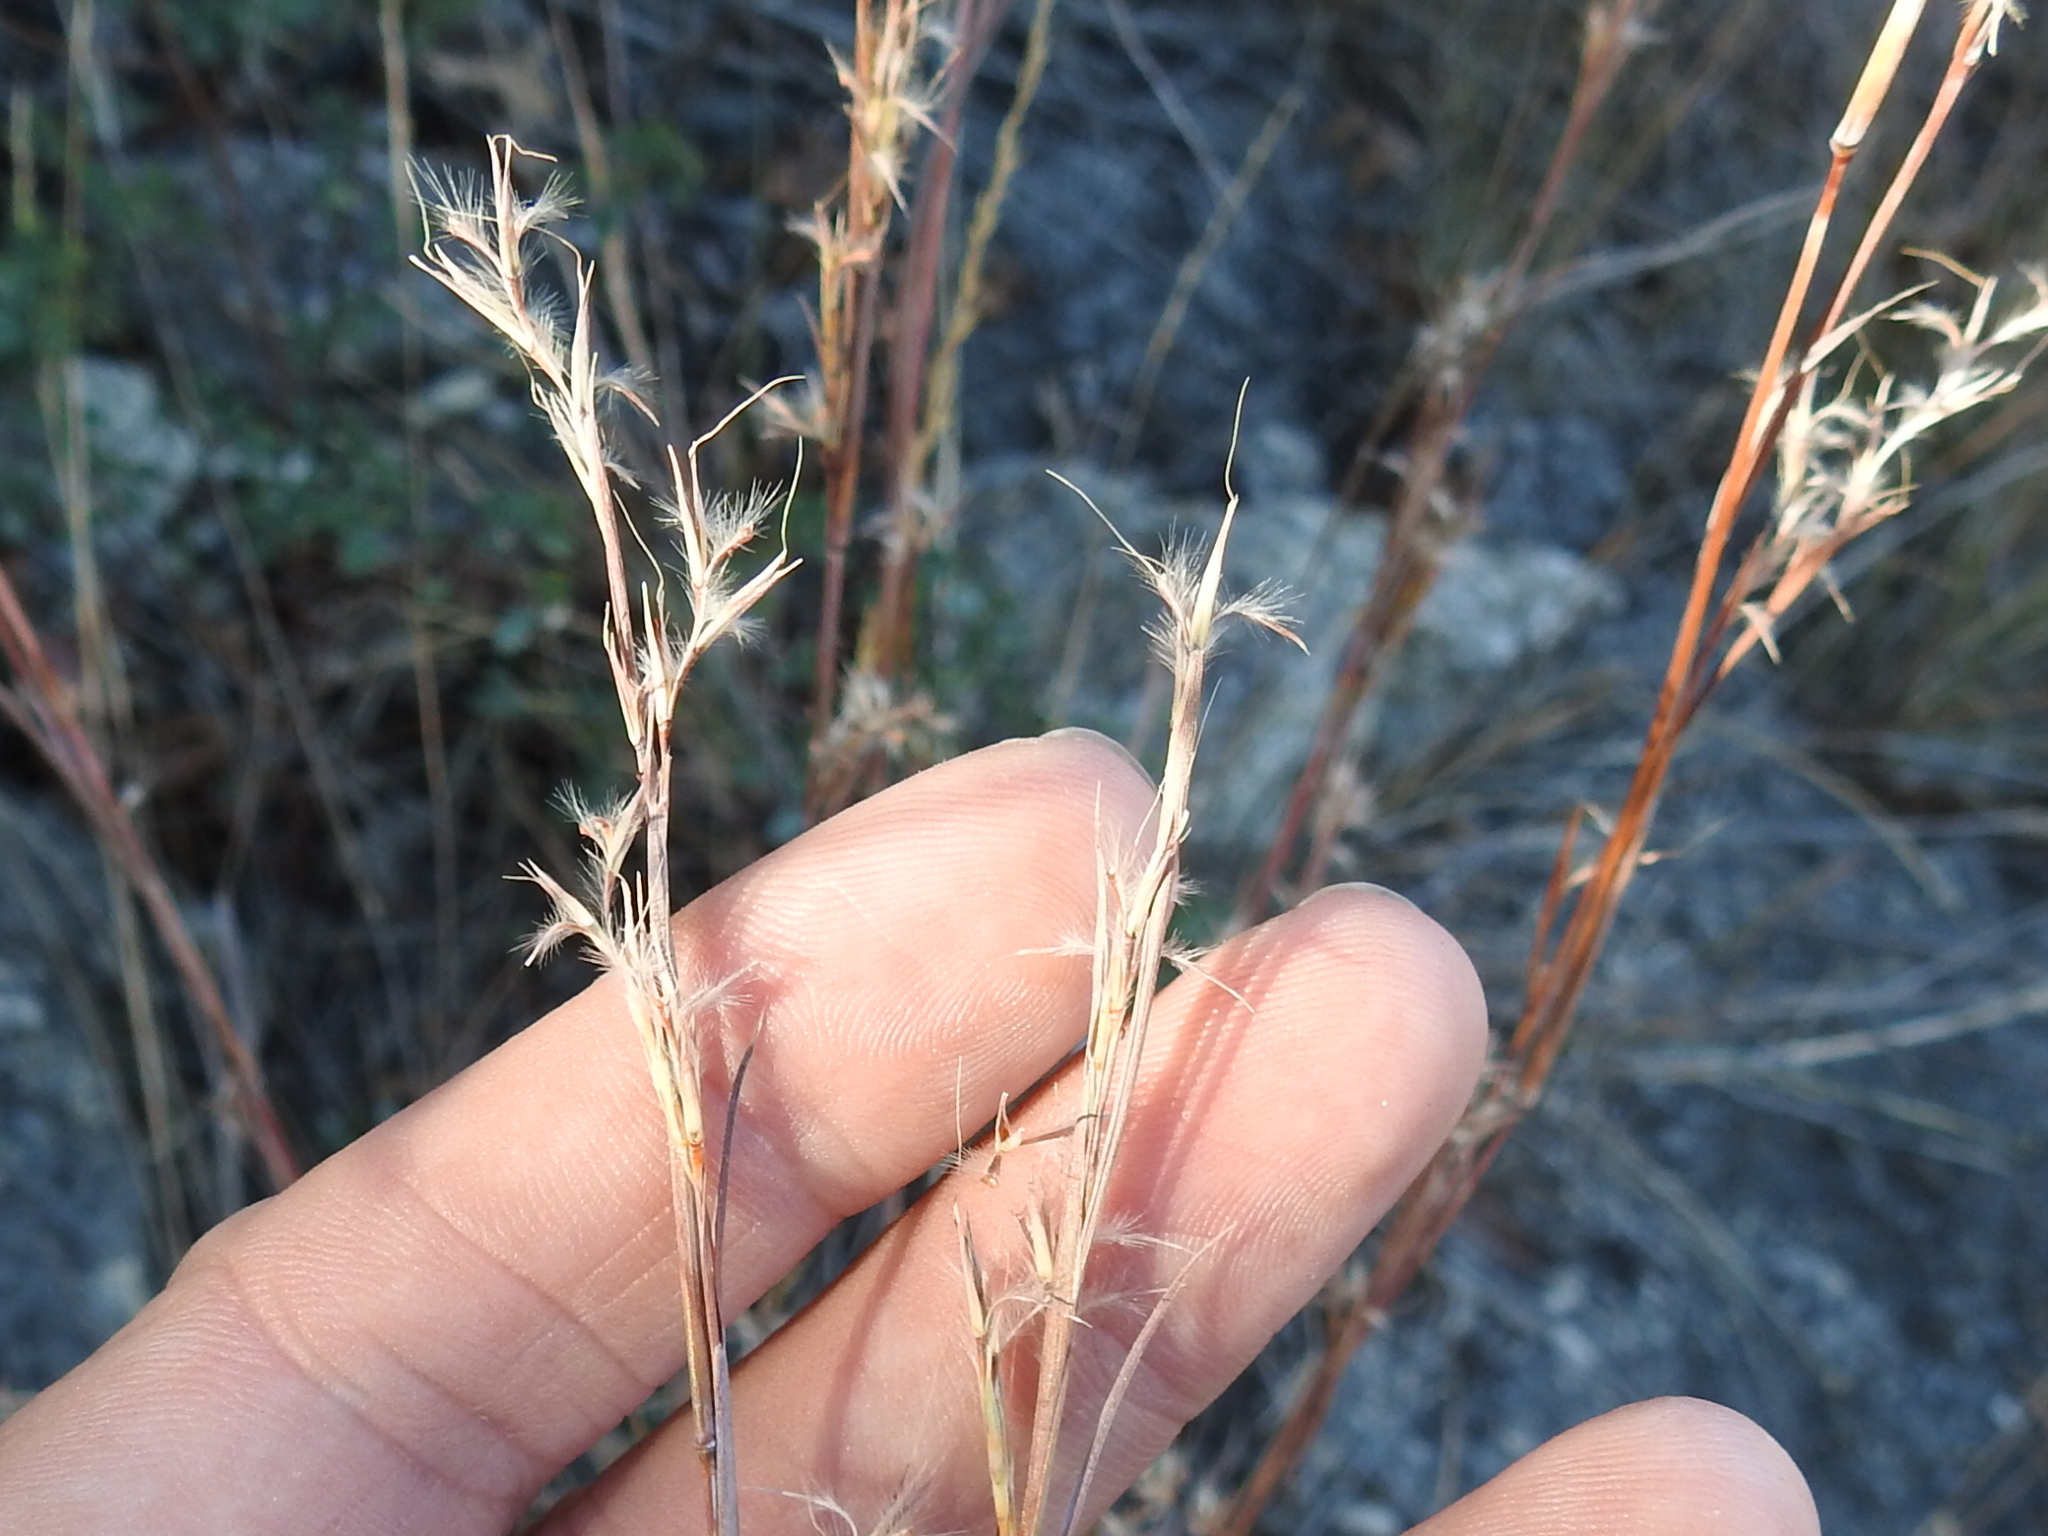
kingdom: Plantae
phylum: Tracheophyta
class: Liliopsida
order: Poales
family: Poaceae
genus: Schizachyrium
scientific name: Schizachyrium scoparium
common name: Little bluestem
